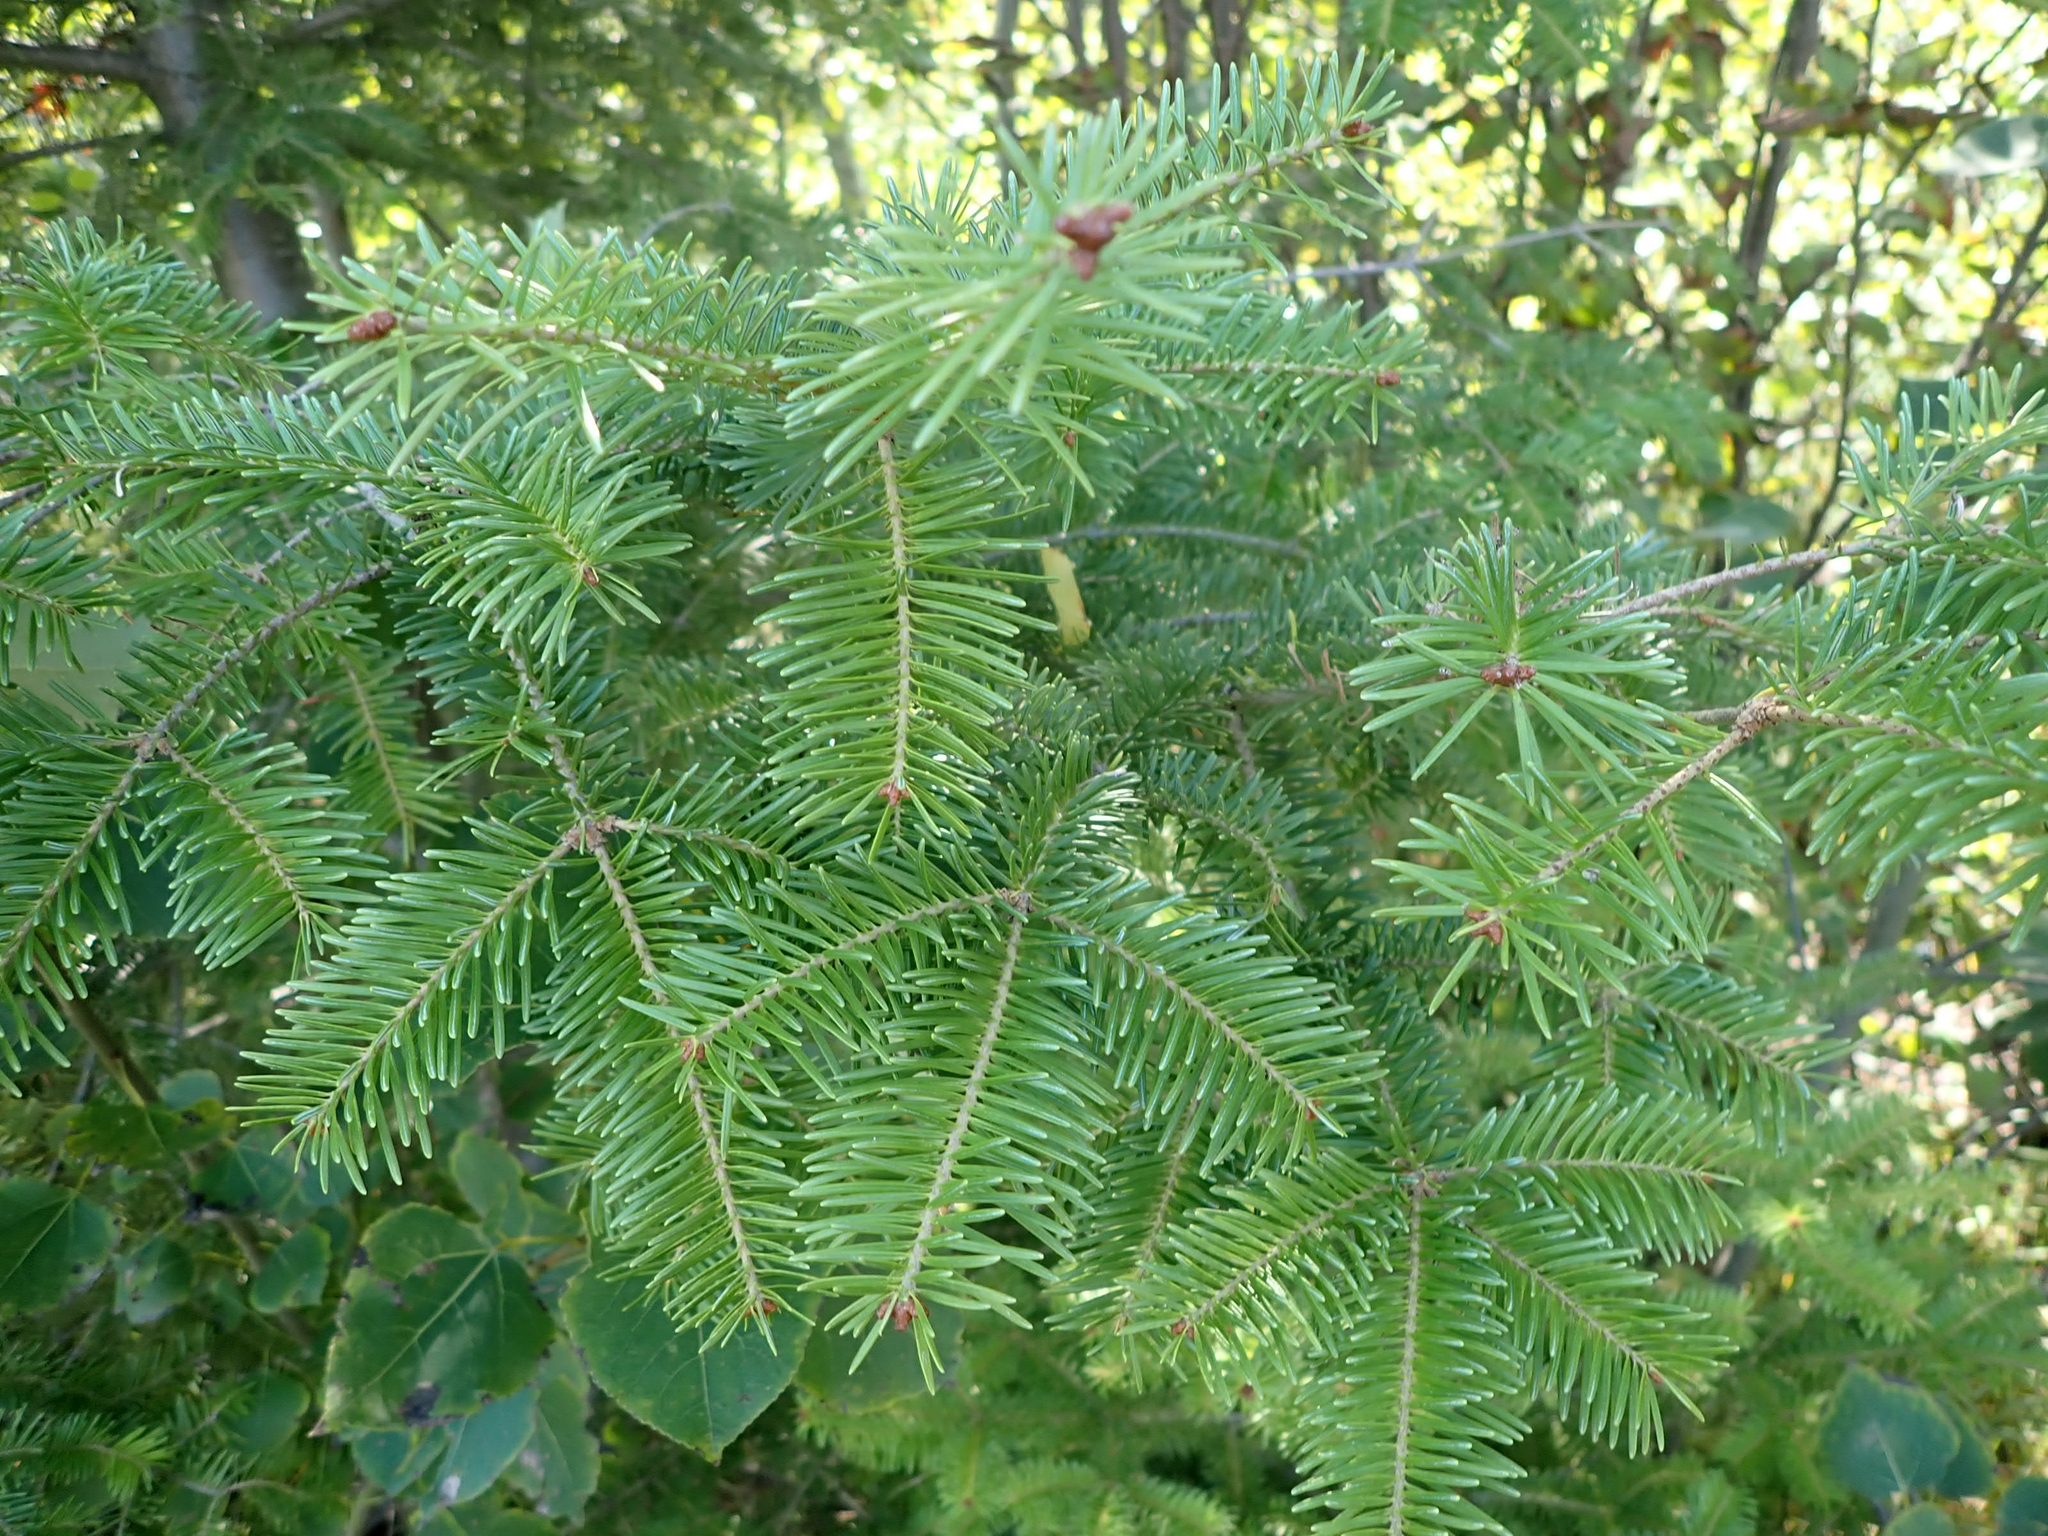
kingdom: Plantae
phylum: Tracheophyta
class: Pinopsida
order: Pinales
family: Pinaceae
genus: Abies
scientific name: Abies balsamea
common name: Balsam fir
